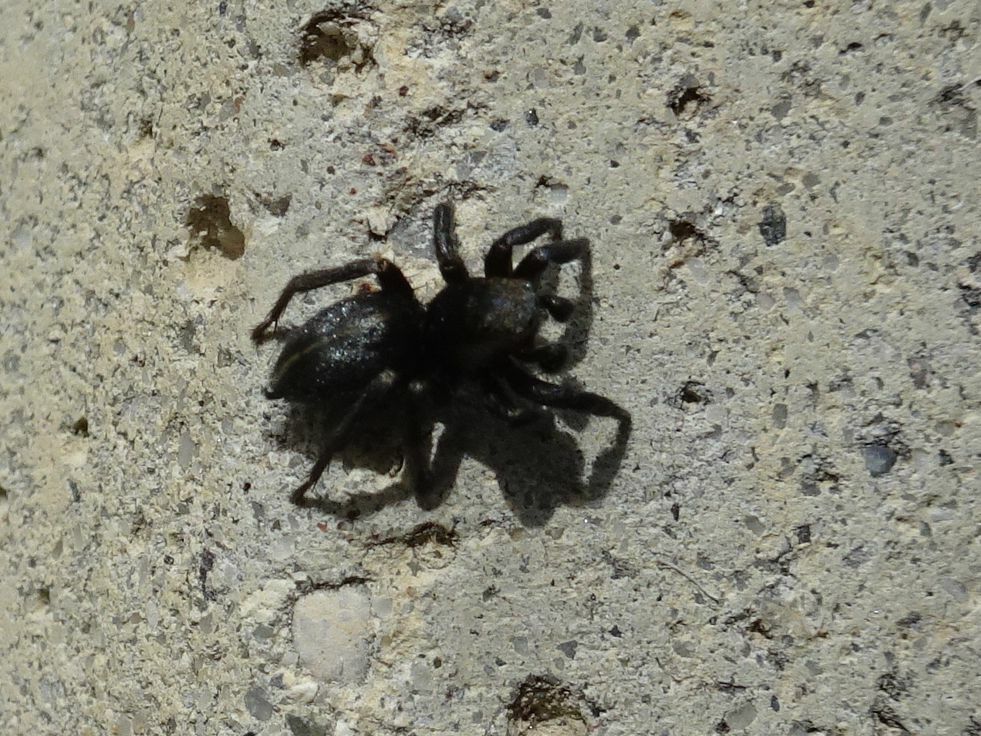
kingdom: Animalia
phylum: Arthropoda
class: Arachnida
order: Araneae
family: Salticidae
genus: Phlegra
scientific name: Phlegra fasciata
